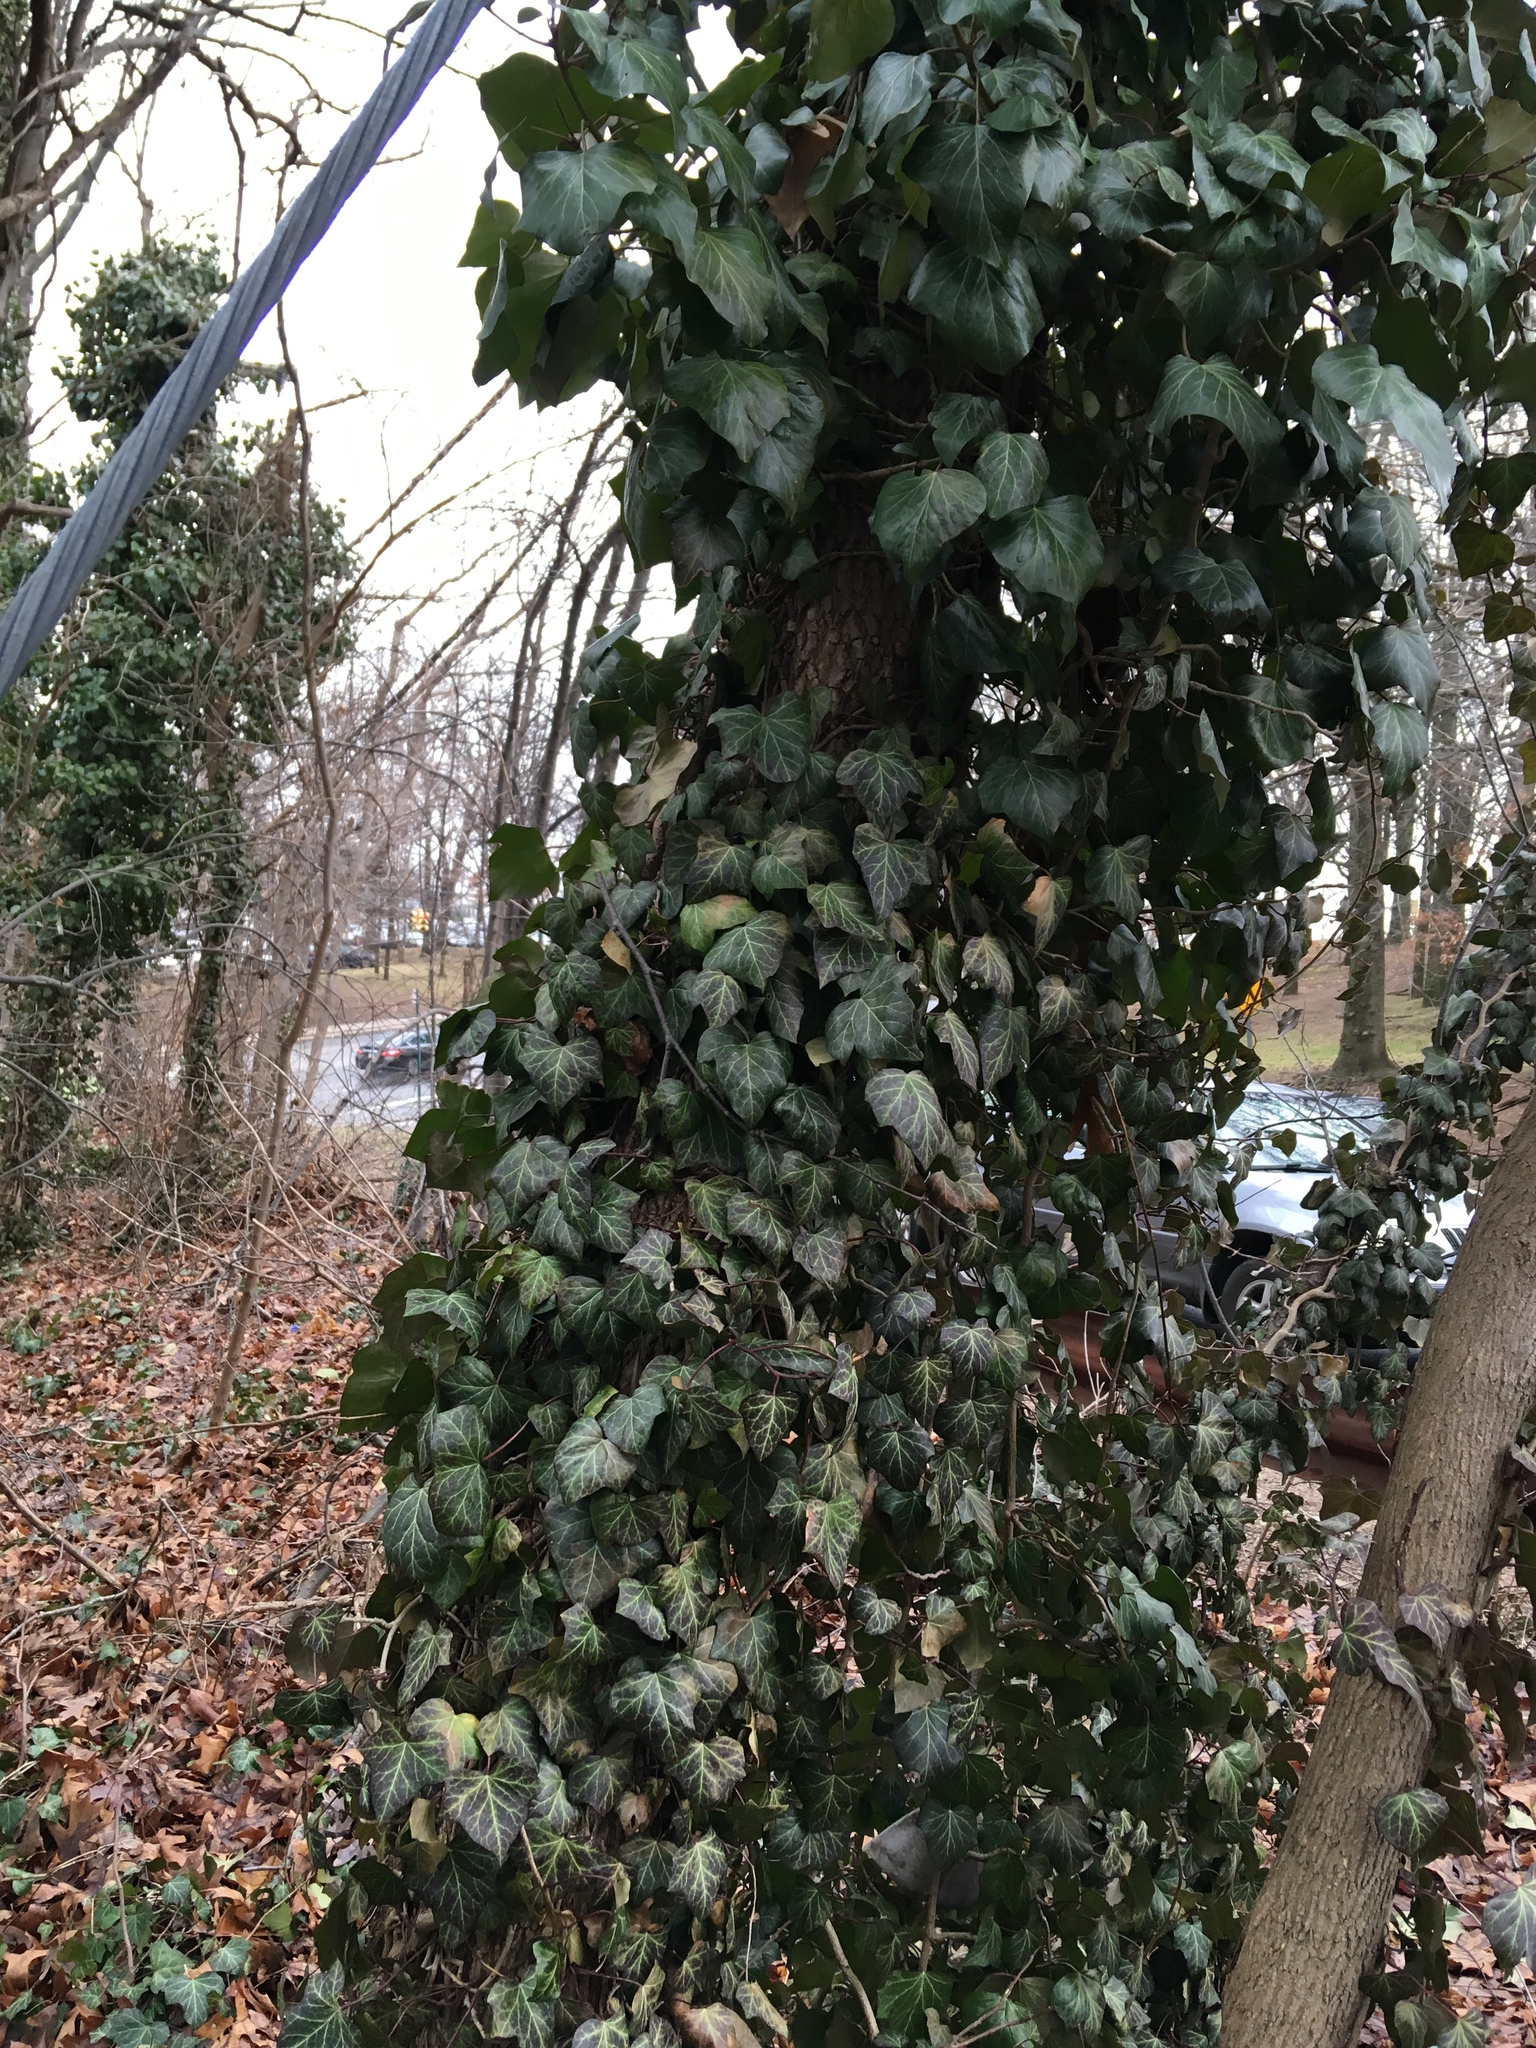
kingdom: Plantae
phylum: Tracheophyta
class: Magnoliopsida
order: Apiales
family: Araliaceae
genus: Hedera
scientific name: Hedera helix
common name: Ivy
